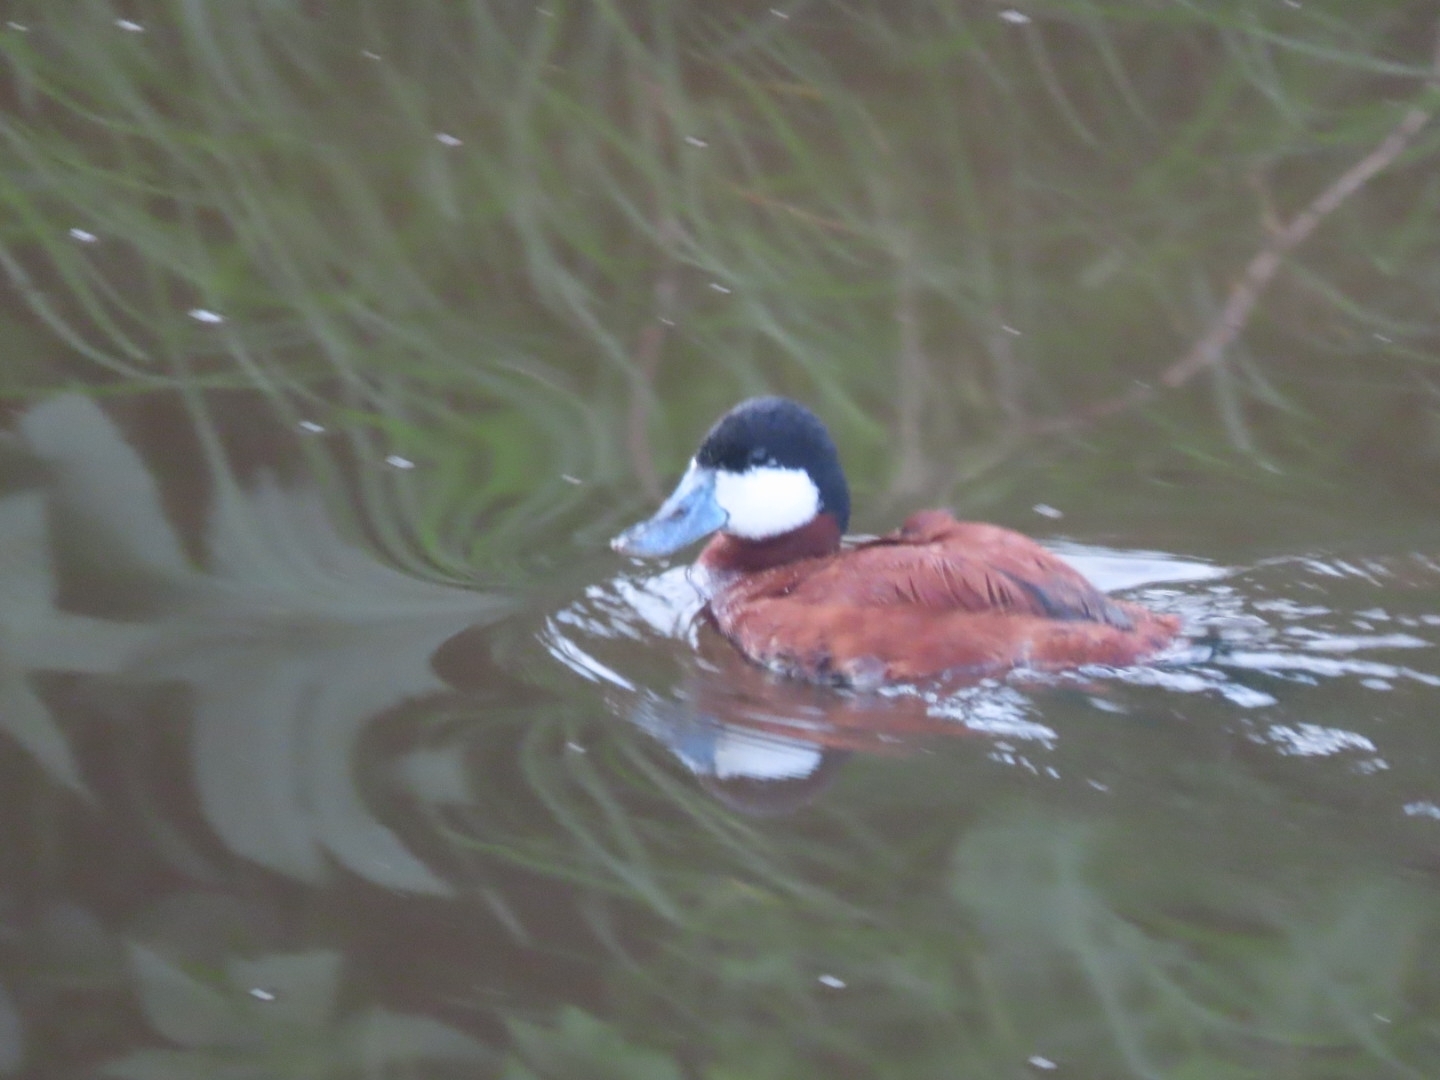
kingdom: Animalia
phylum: Chordata
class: Aves
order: Anseriformes
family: Anatidae
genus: Oxyura
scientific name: Oxyura jamaicensis
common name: Ruddy duck
